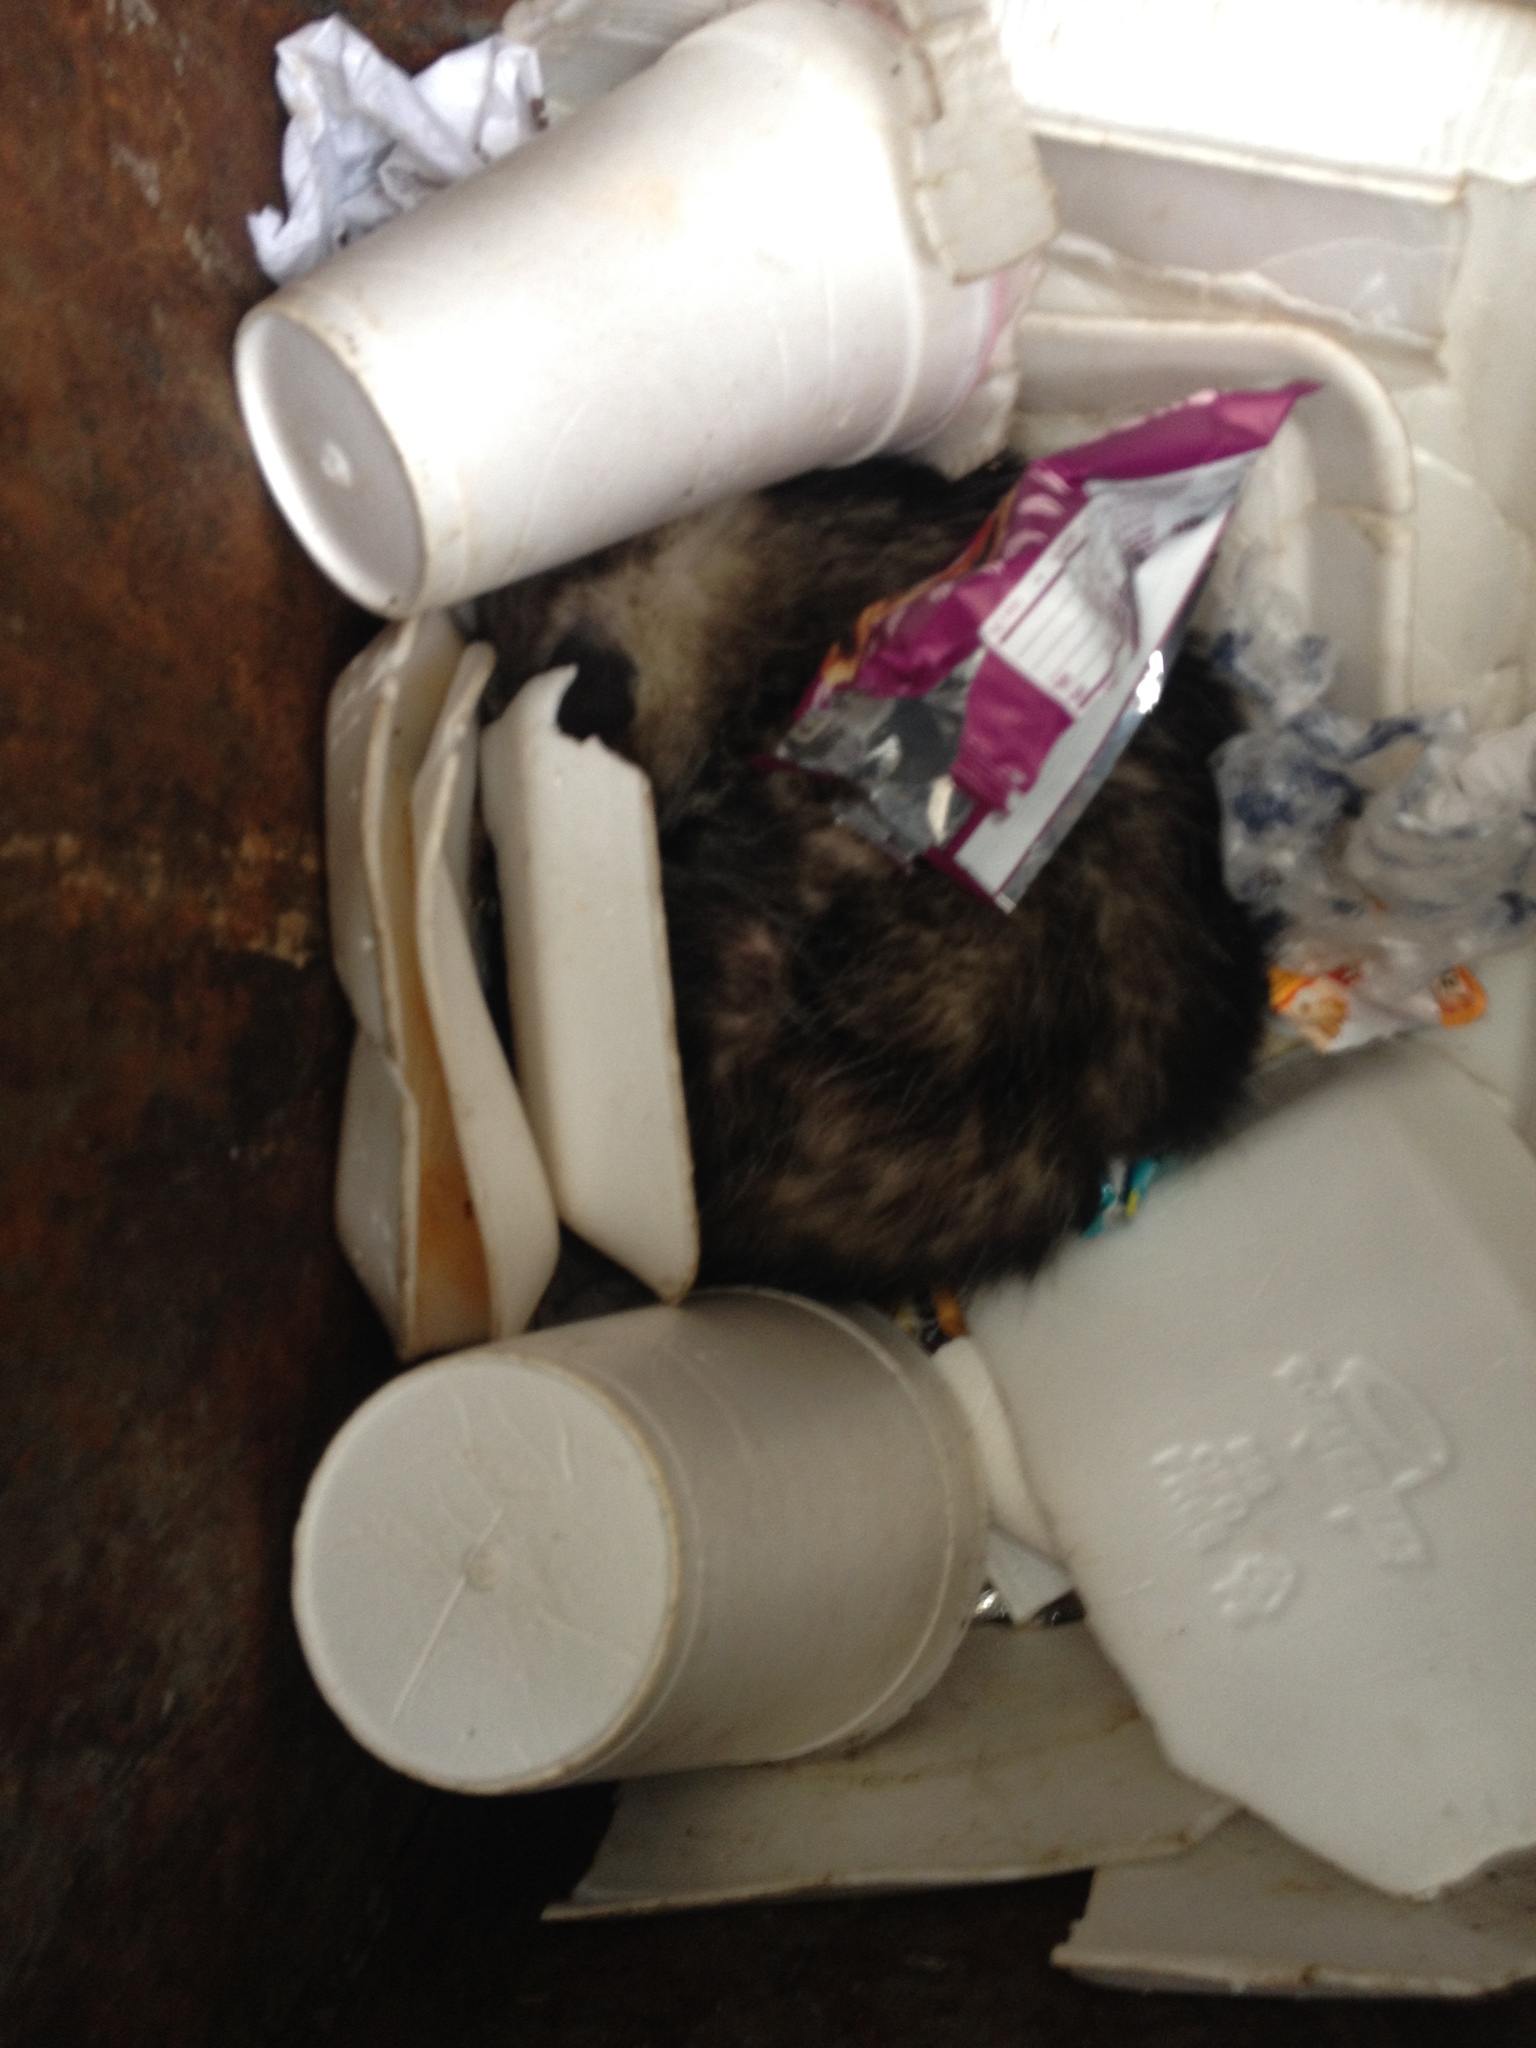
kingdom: Animalia
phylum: Chordata
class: Mammalia
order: Didelphimorphia
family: Didelphidae
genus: Didelphis
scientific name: Didelphis virginiana
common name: Virginia opossum
